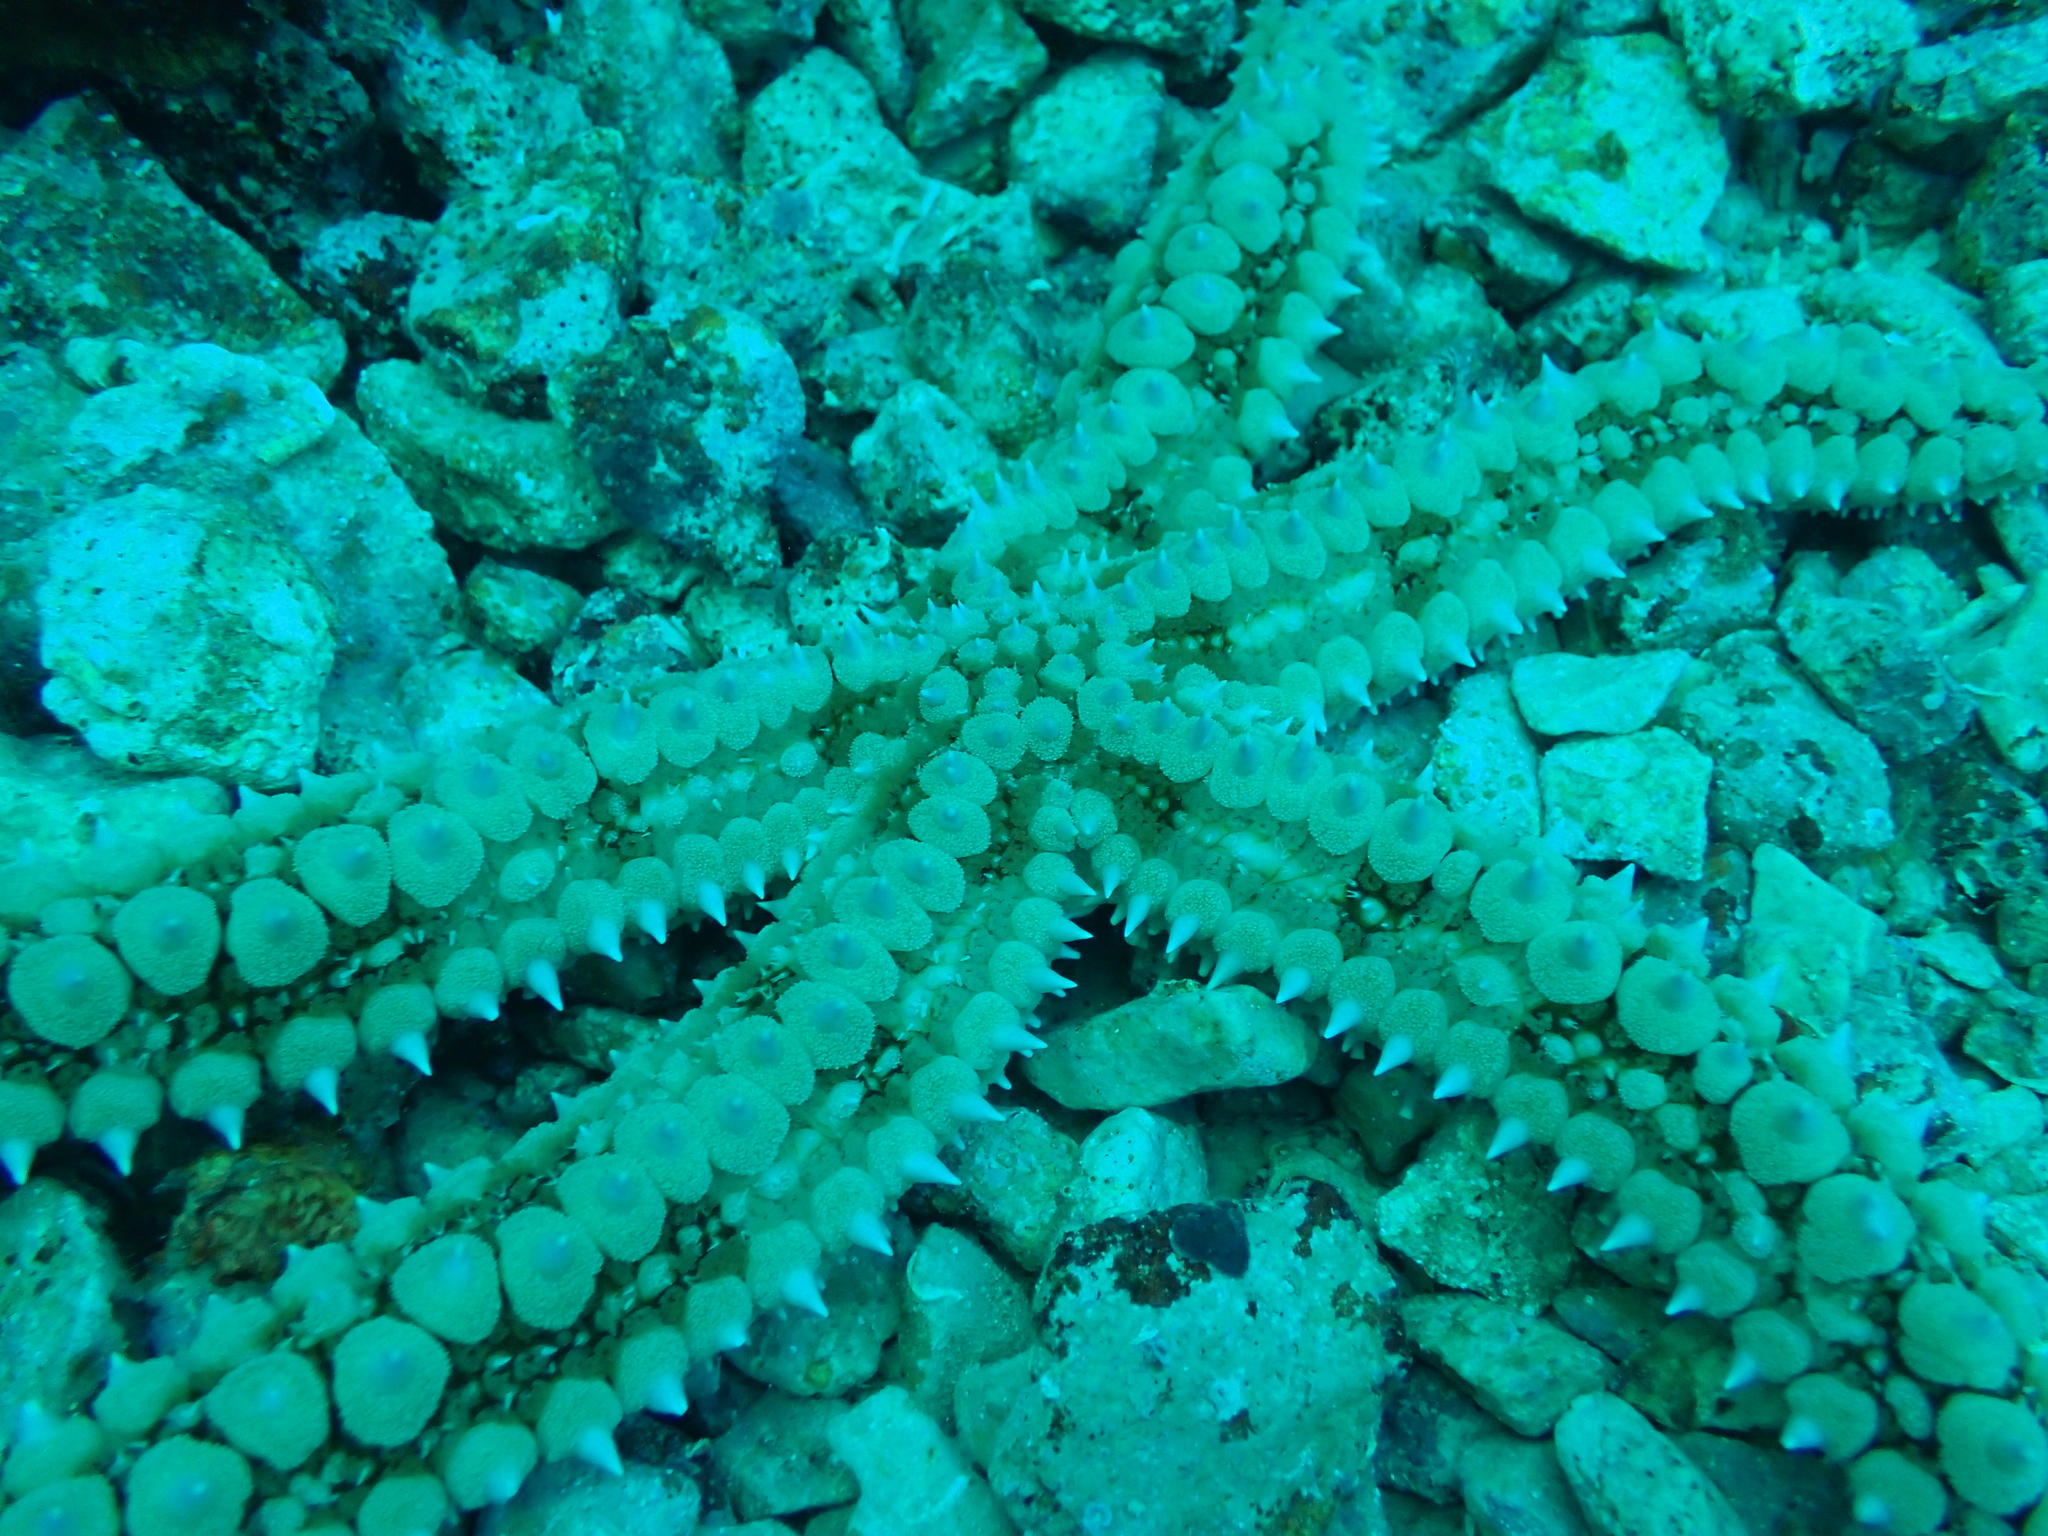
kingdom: Animalia
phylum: Echinodermata
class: Asteroidea
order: Forcipulatida
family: Asteriidae
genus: Marthasterias
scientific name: Marthasterias glacialis
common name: Spiny starfish
